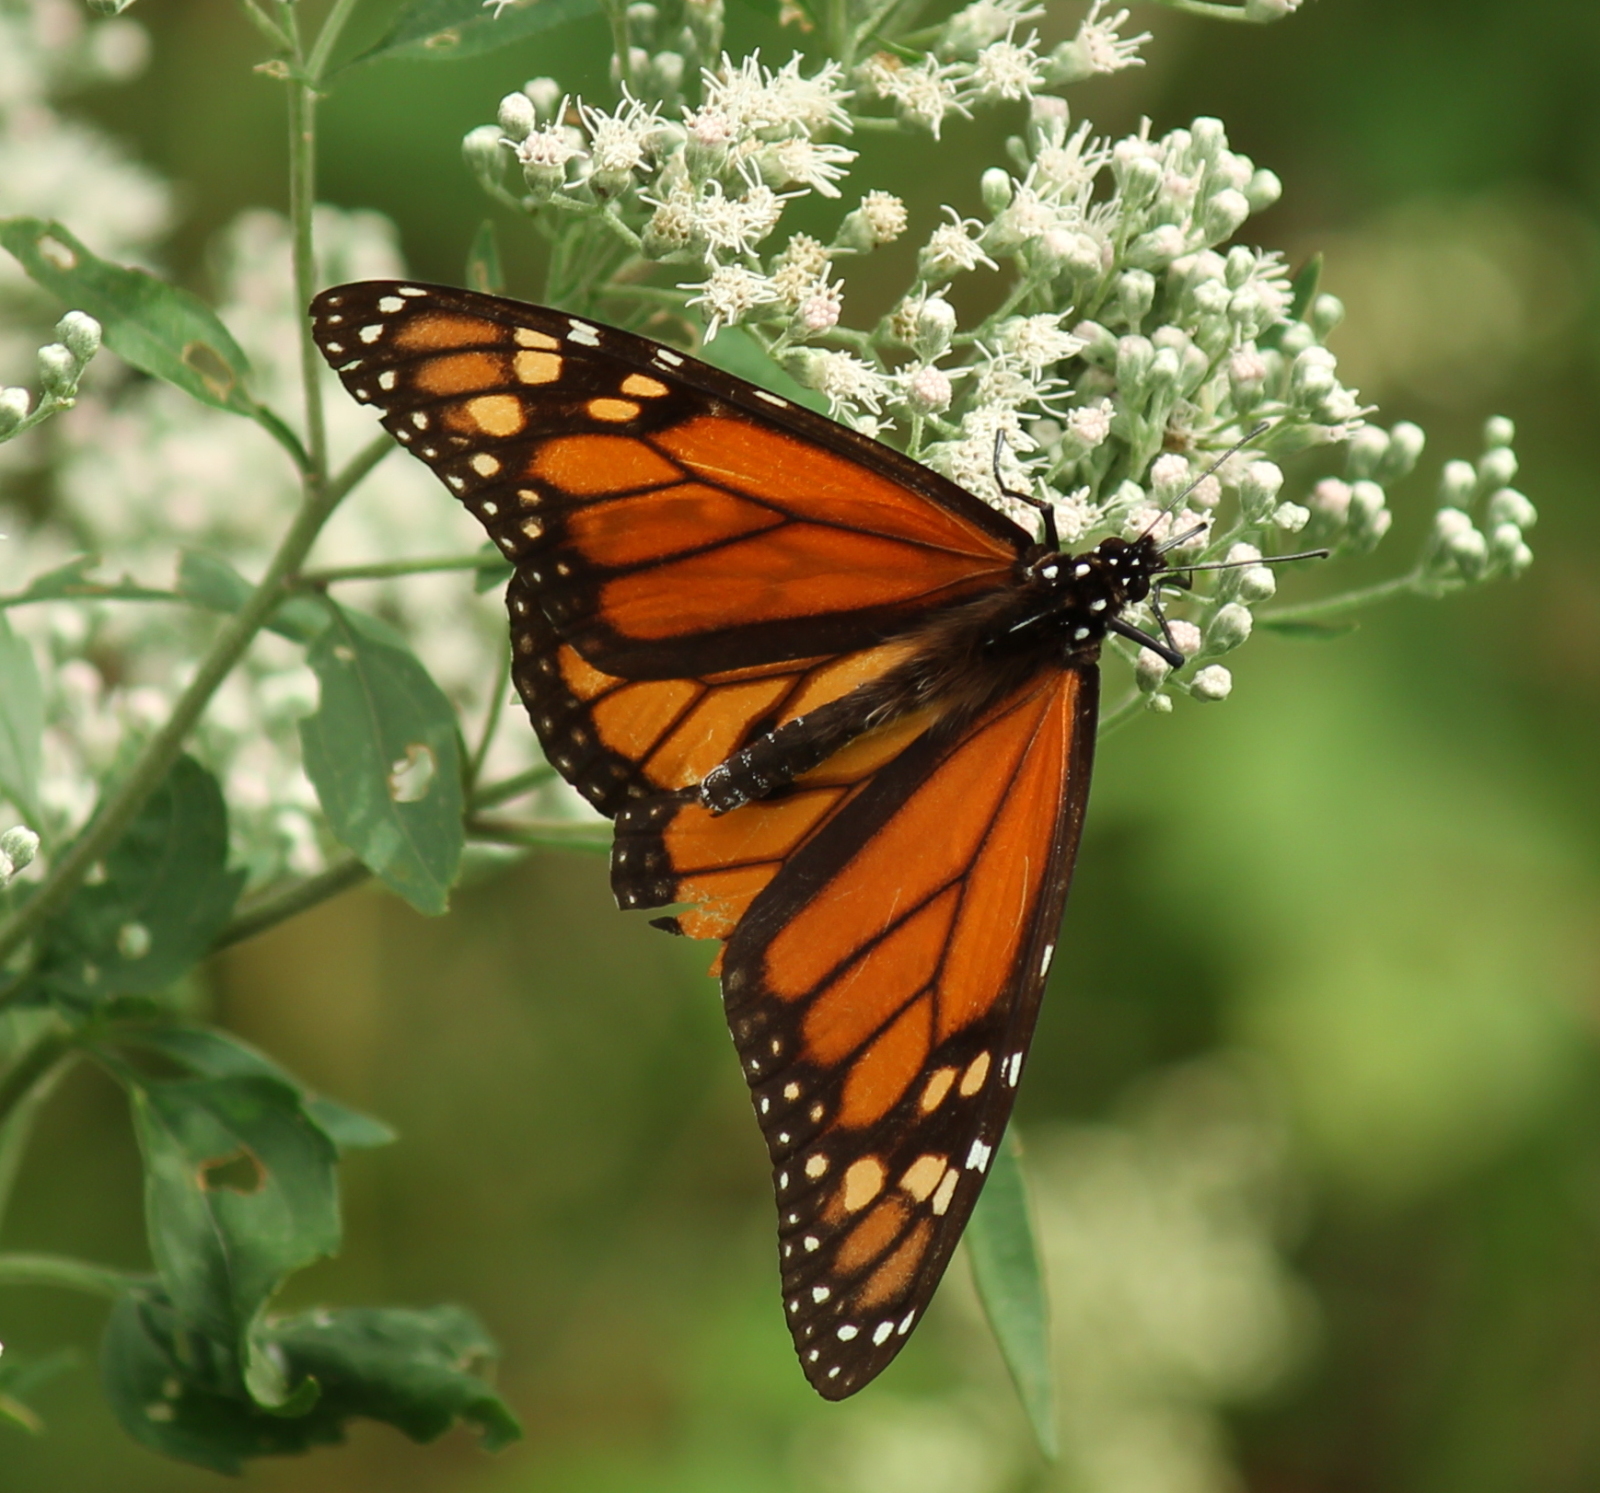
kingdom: Animalia
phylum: Arthropoda
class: Insecta
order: Lepidoptera
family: Nymphalidae
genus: Danaus
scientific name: Danaus plexippus
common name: Monarch
